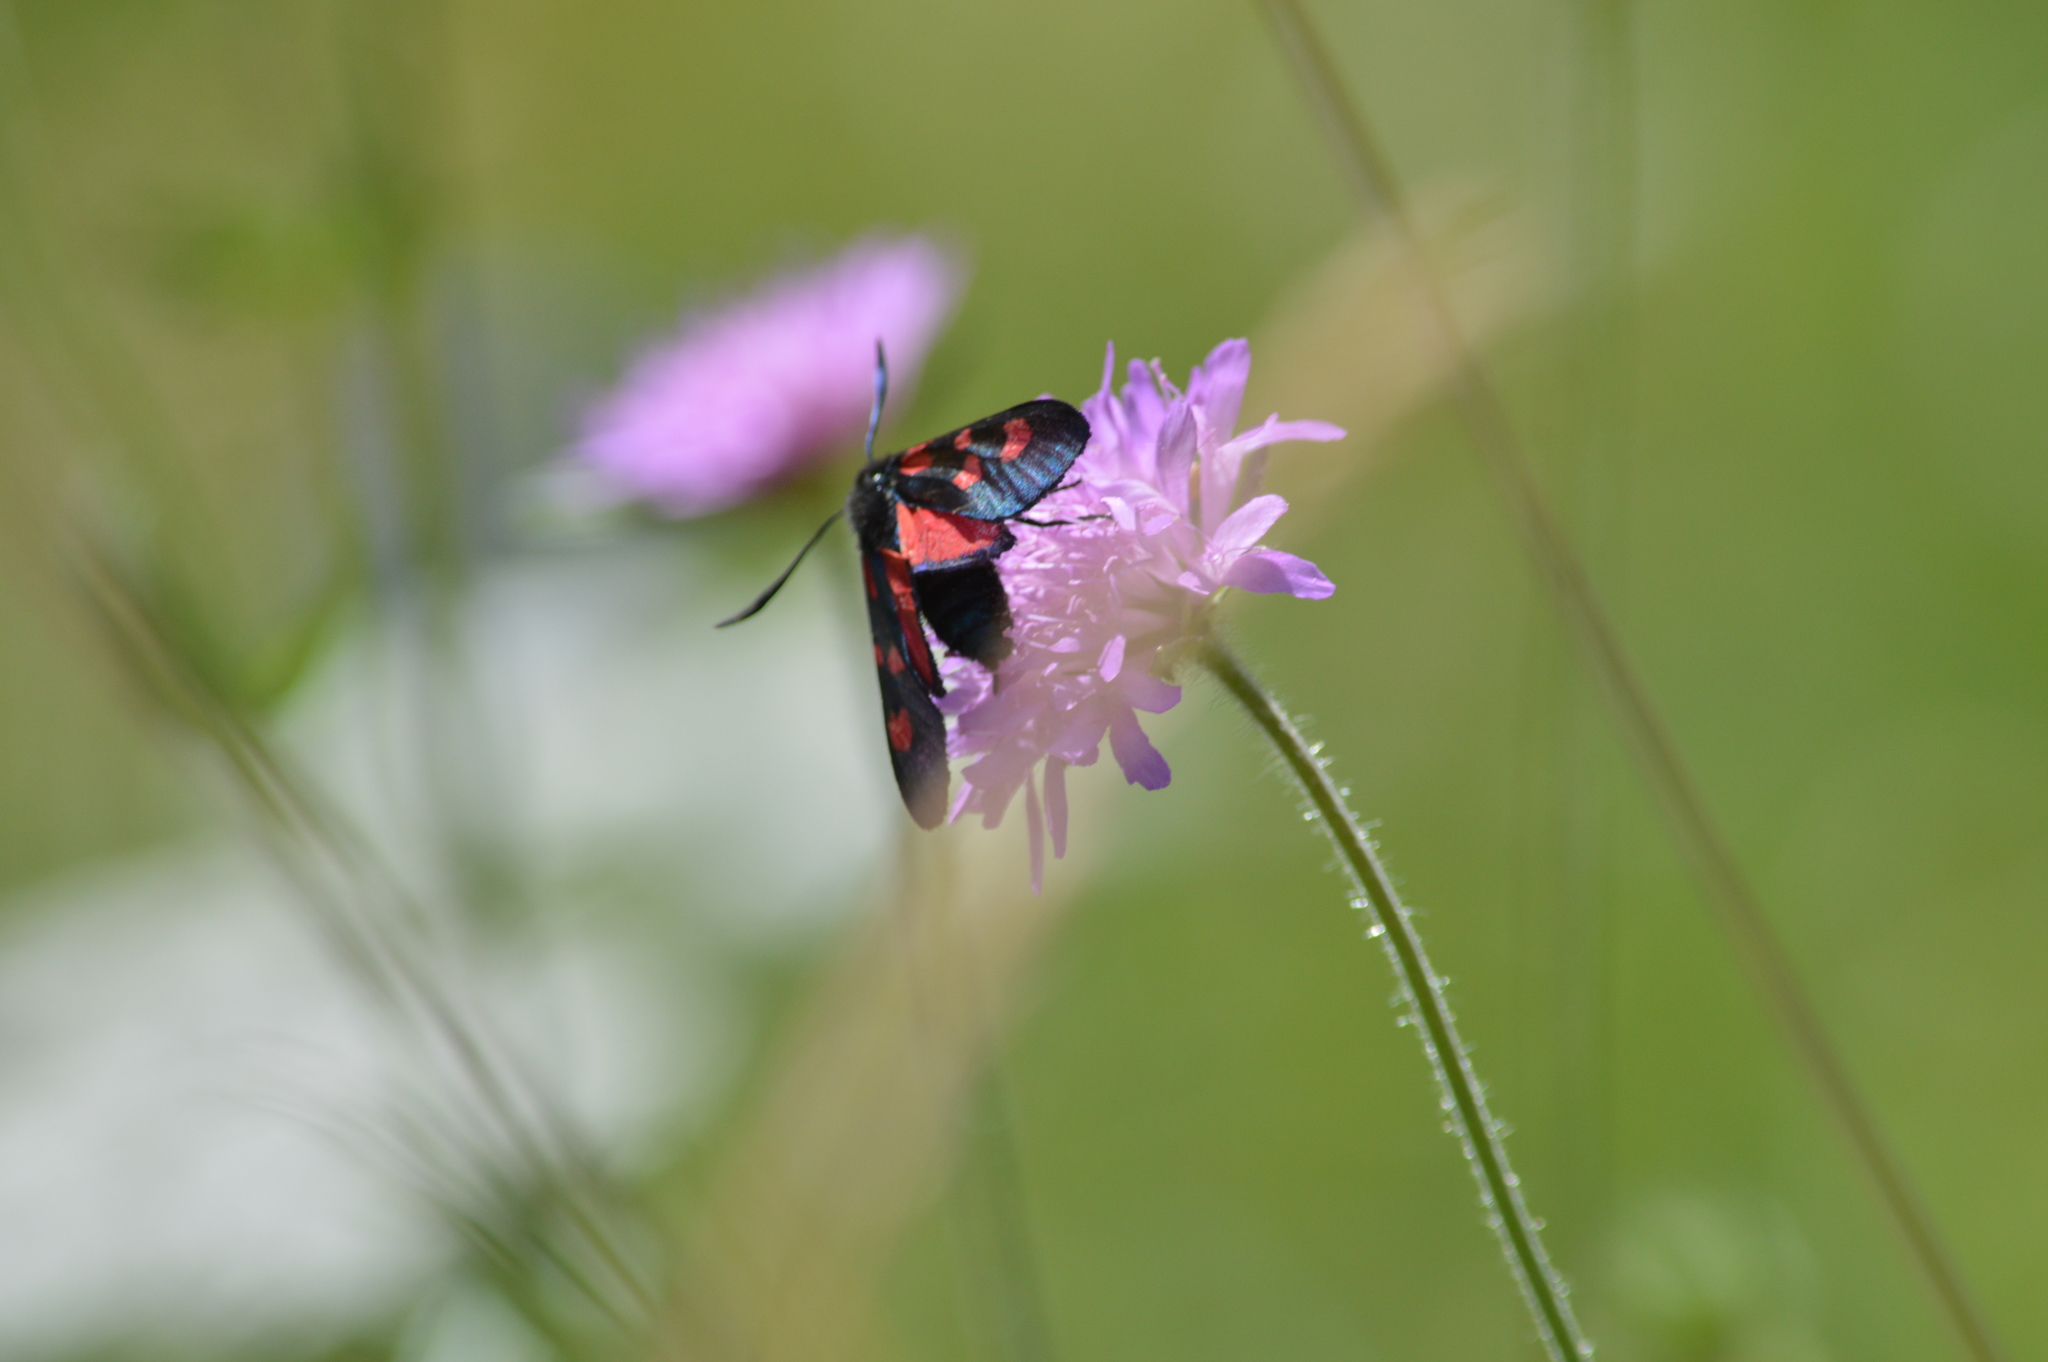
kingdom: Animalia
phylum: Arthropoda
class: Insecta
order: Lepidoptera
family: Zygaenidae
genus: Zygaena
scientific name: Zygaena lonicerae
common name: Narrow-bordered five-spot burnet
